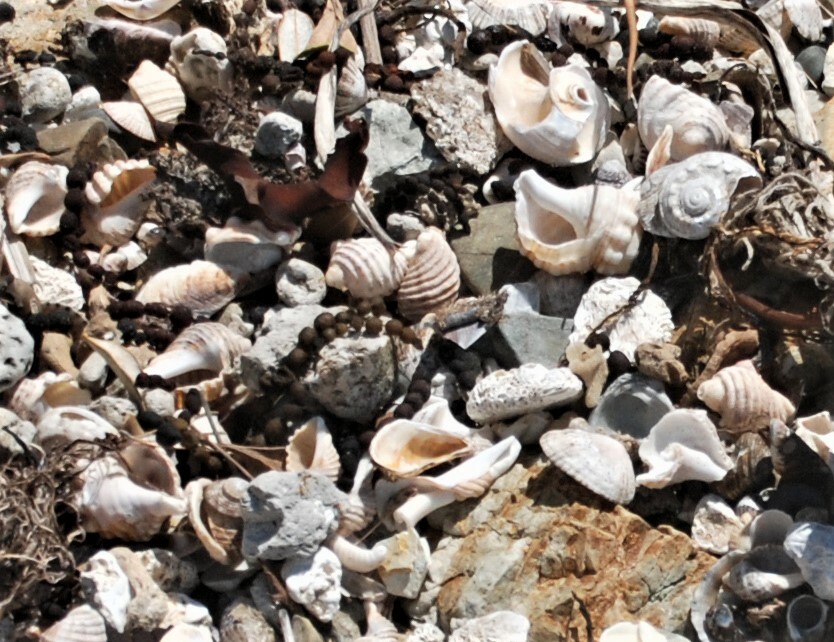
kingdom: Animalia
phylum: Mollusca
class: Gastropoda
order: Trochida
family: Trochidae
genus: Austrocochlea
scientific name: Austrocochlea porcata
